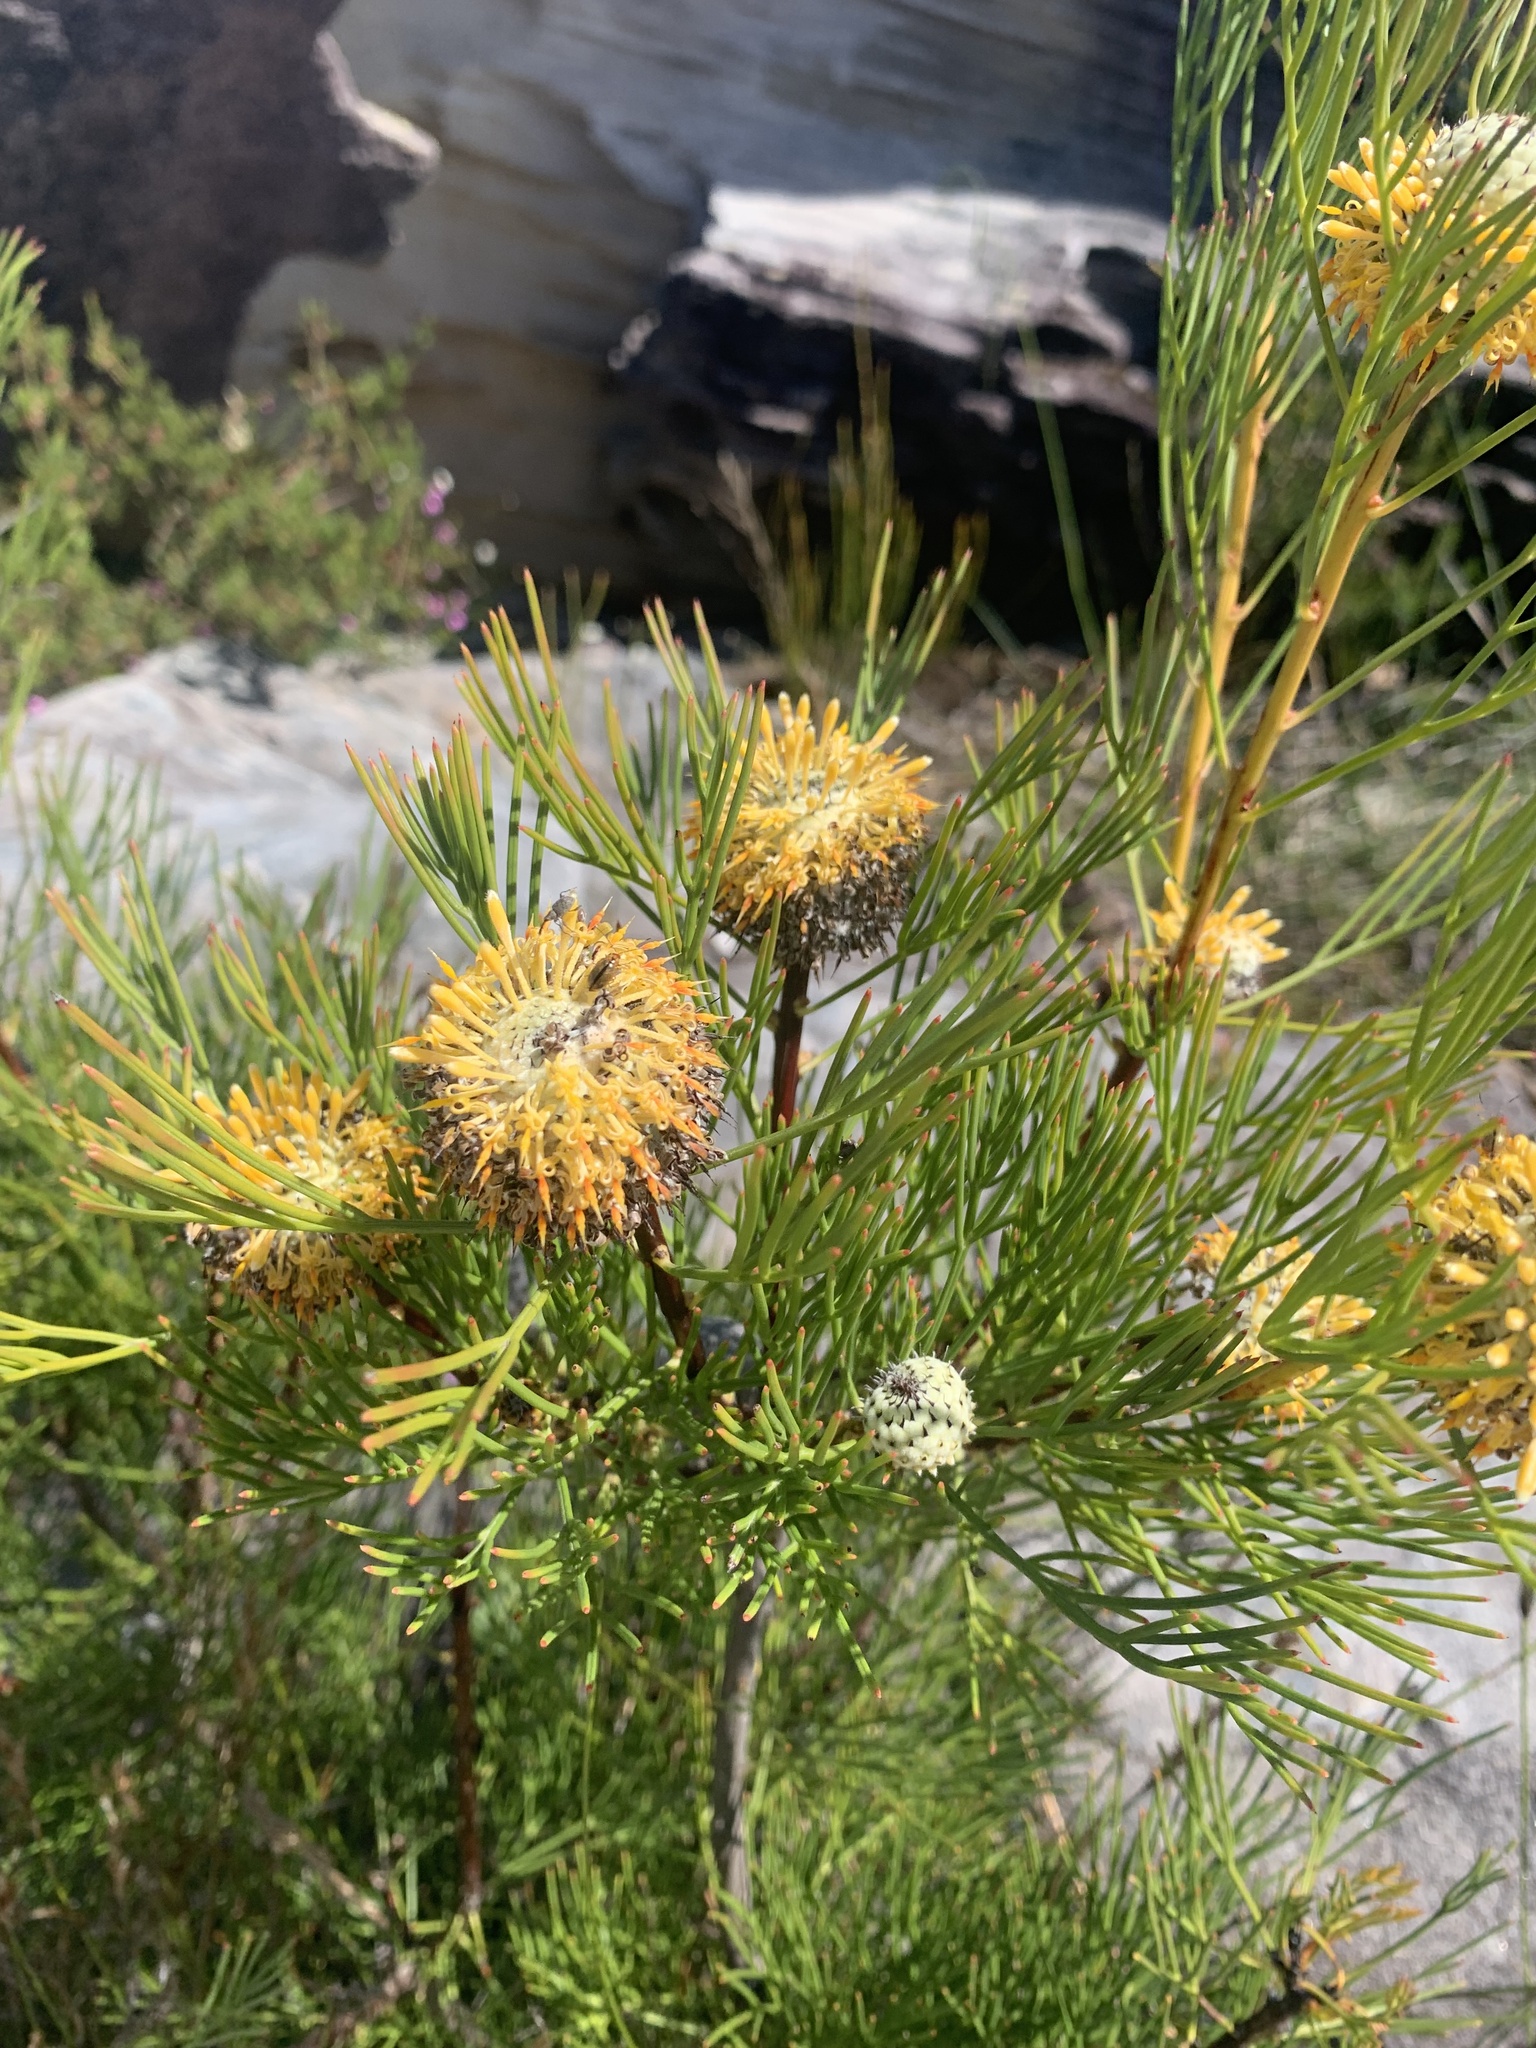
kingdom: Plantae
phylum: Tracheophyta
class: Magnoliopsida
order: Proteales
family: Proteaceae
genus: Isopogon
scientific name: Isopogon anethifolius
